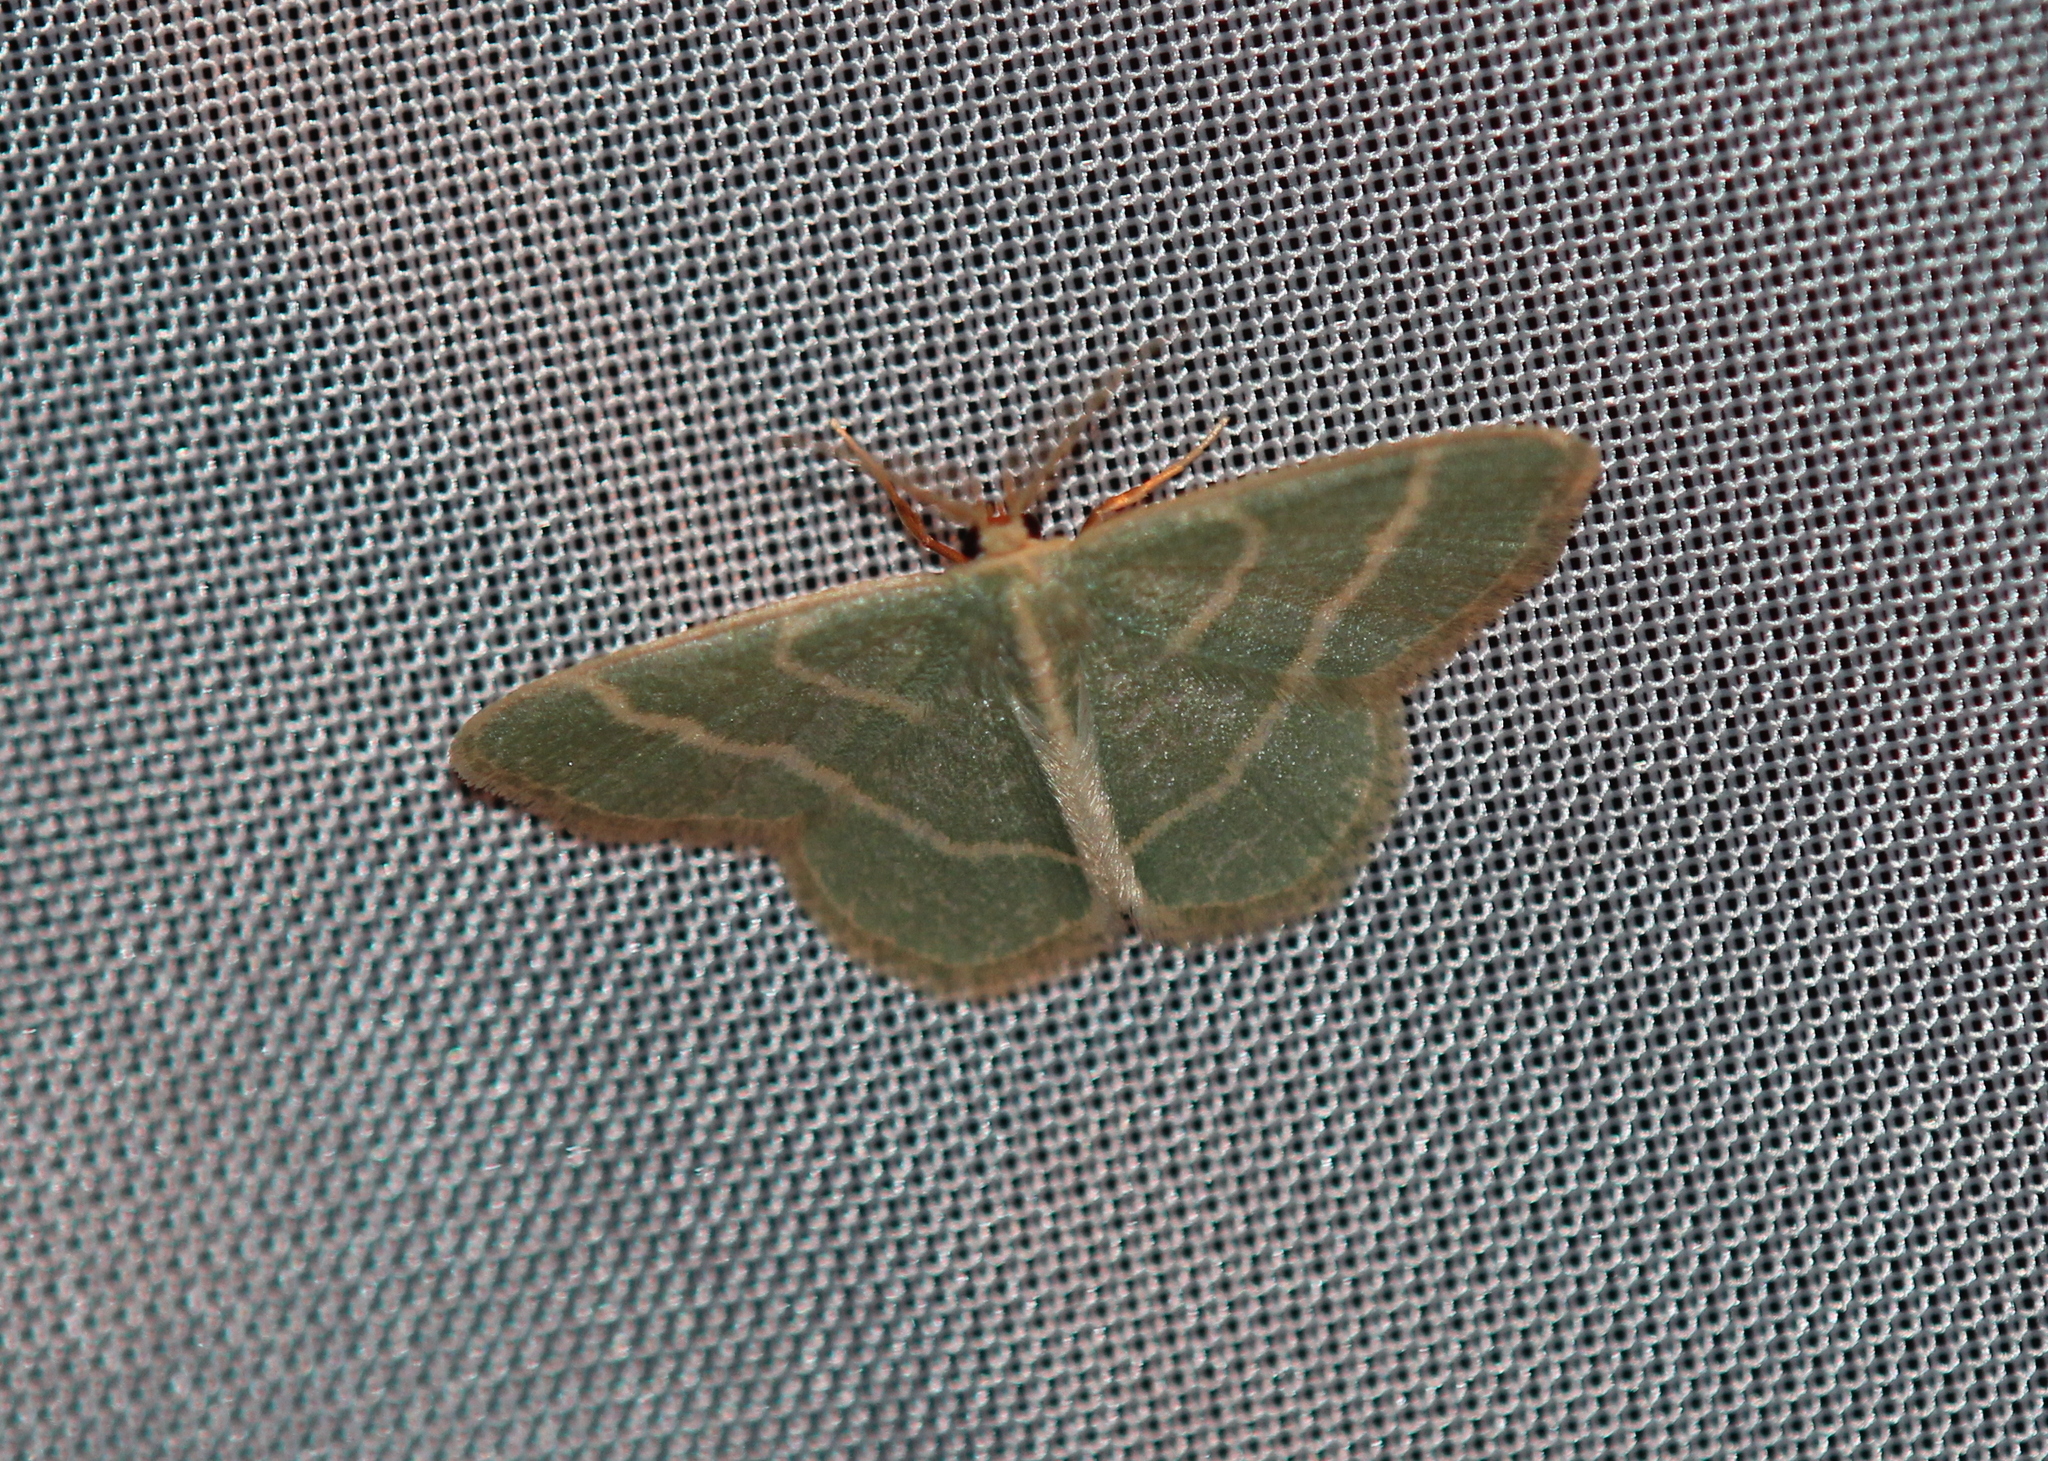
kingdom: Animalia
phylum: Arthropoda
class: Insecta
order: Lepidoptera
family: Geometridae
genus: Chlorochlamys
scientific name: Chlorochlamys chloroleucaria
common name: Blackberry looper
